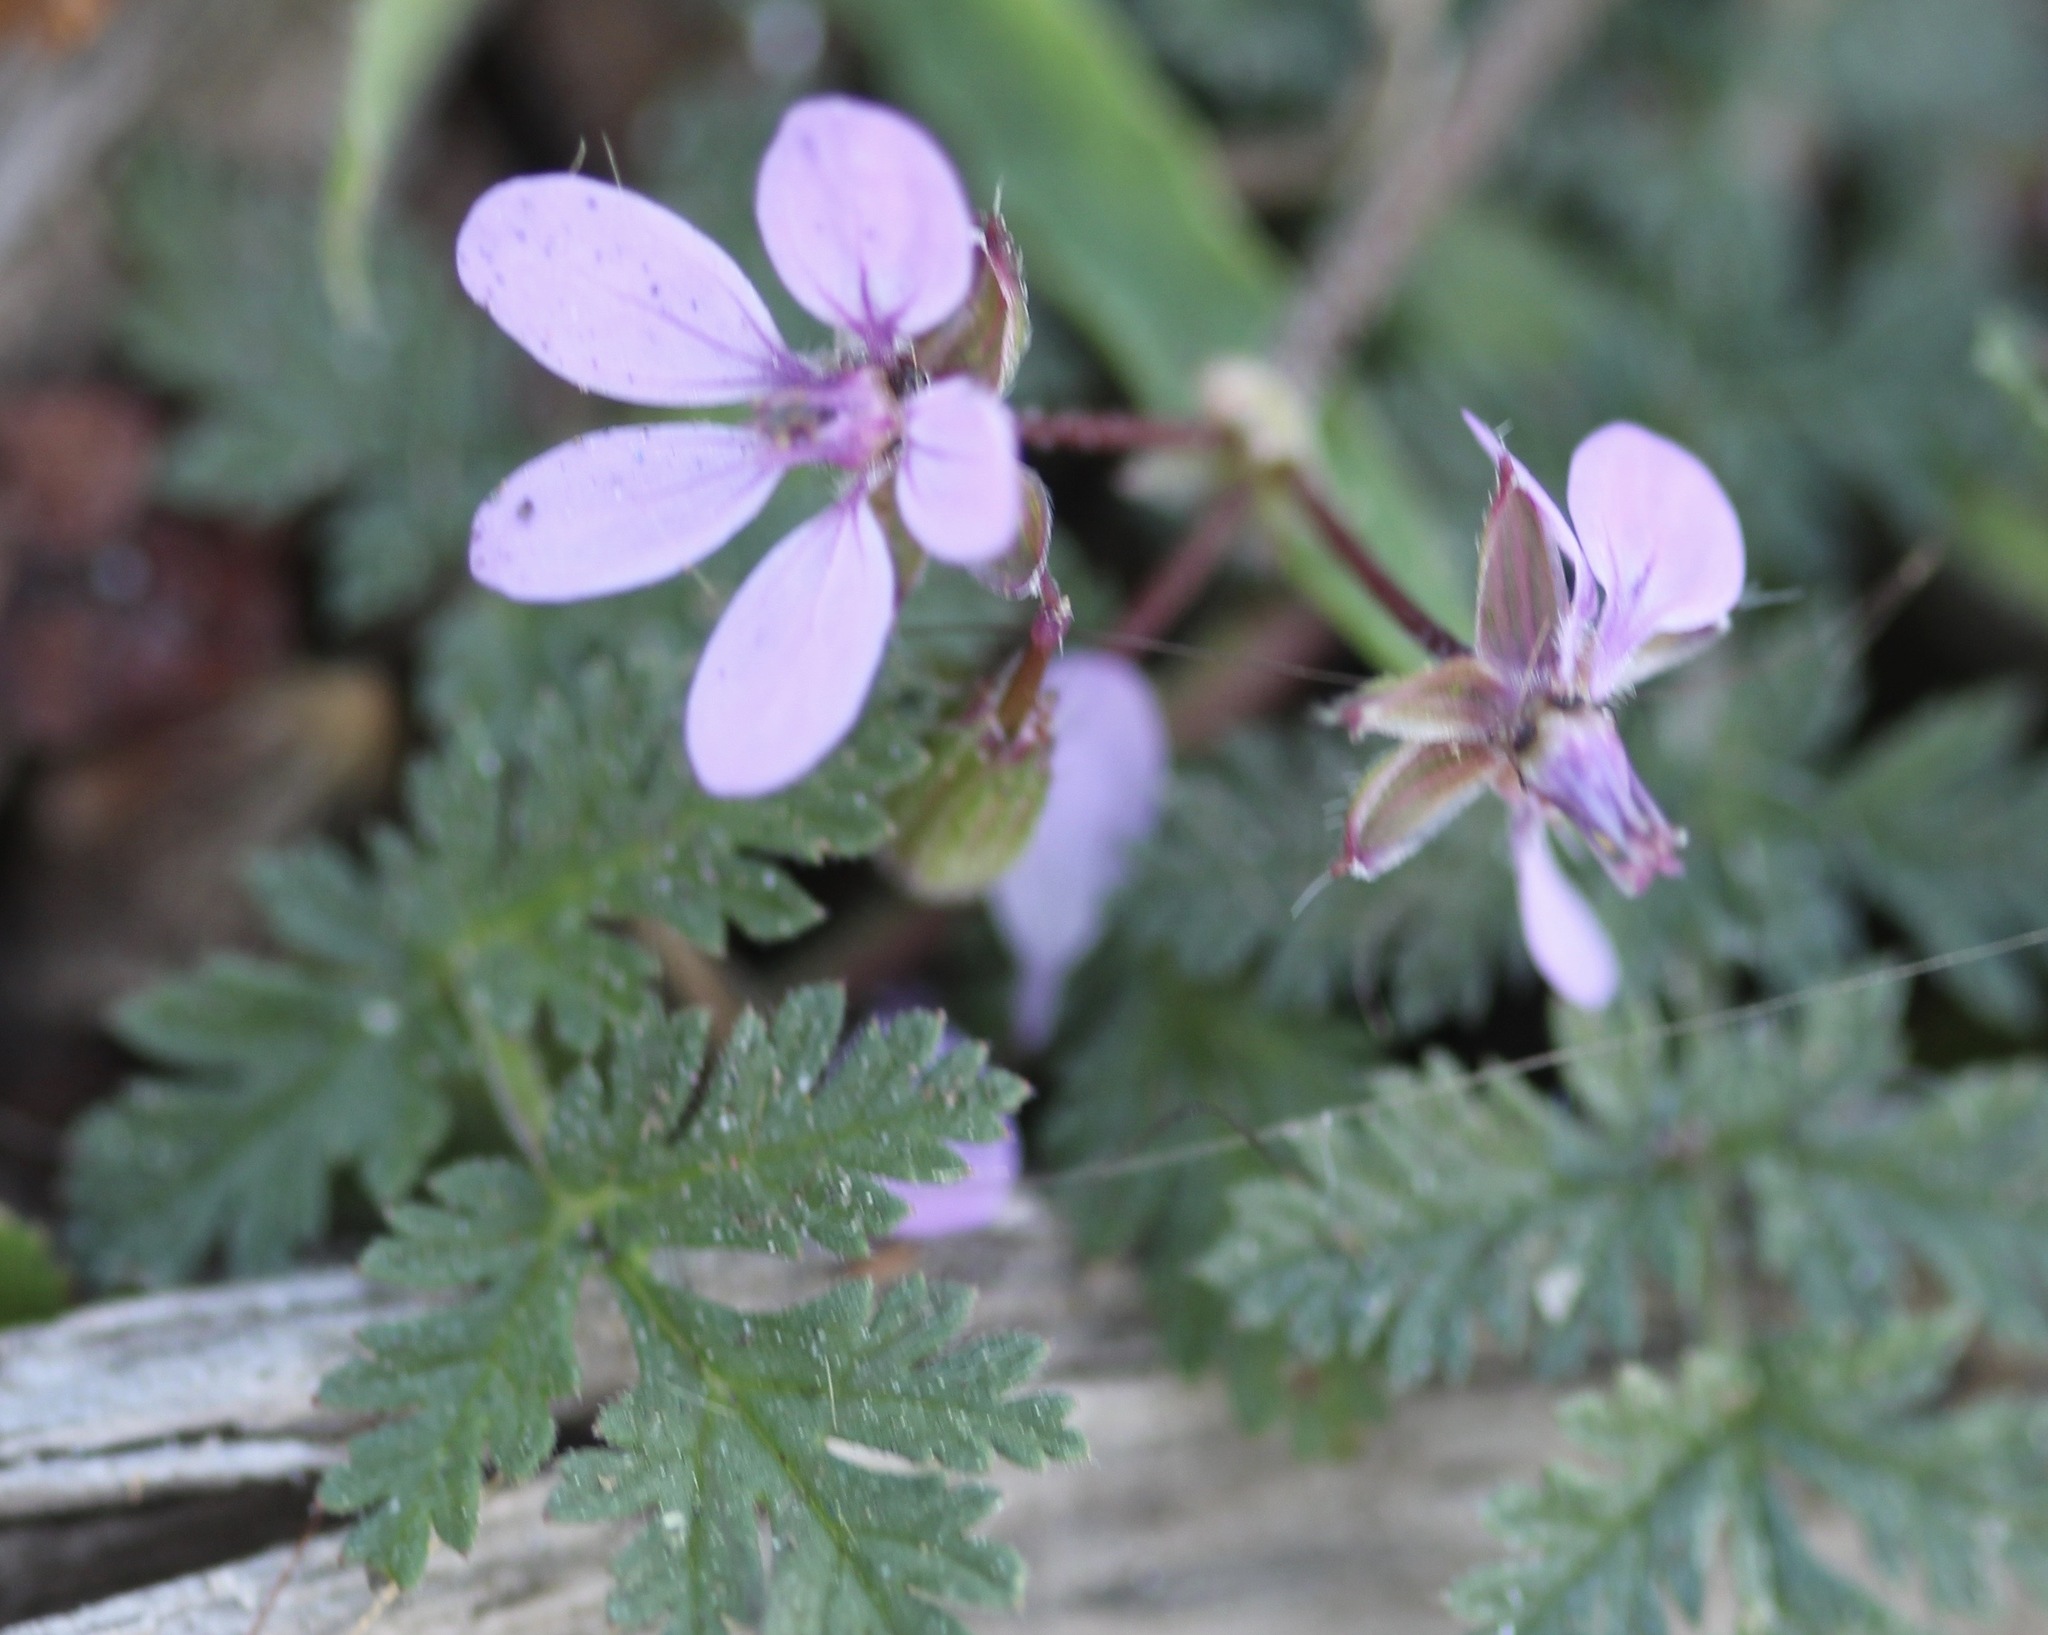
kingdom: Plantae
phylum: Tracheophyta
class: Magnoliopsida
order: Geraniales
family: Geraniaceae
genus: Erodium
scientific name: Erodium cicutarium
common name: Common stork's-bill
